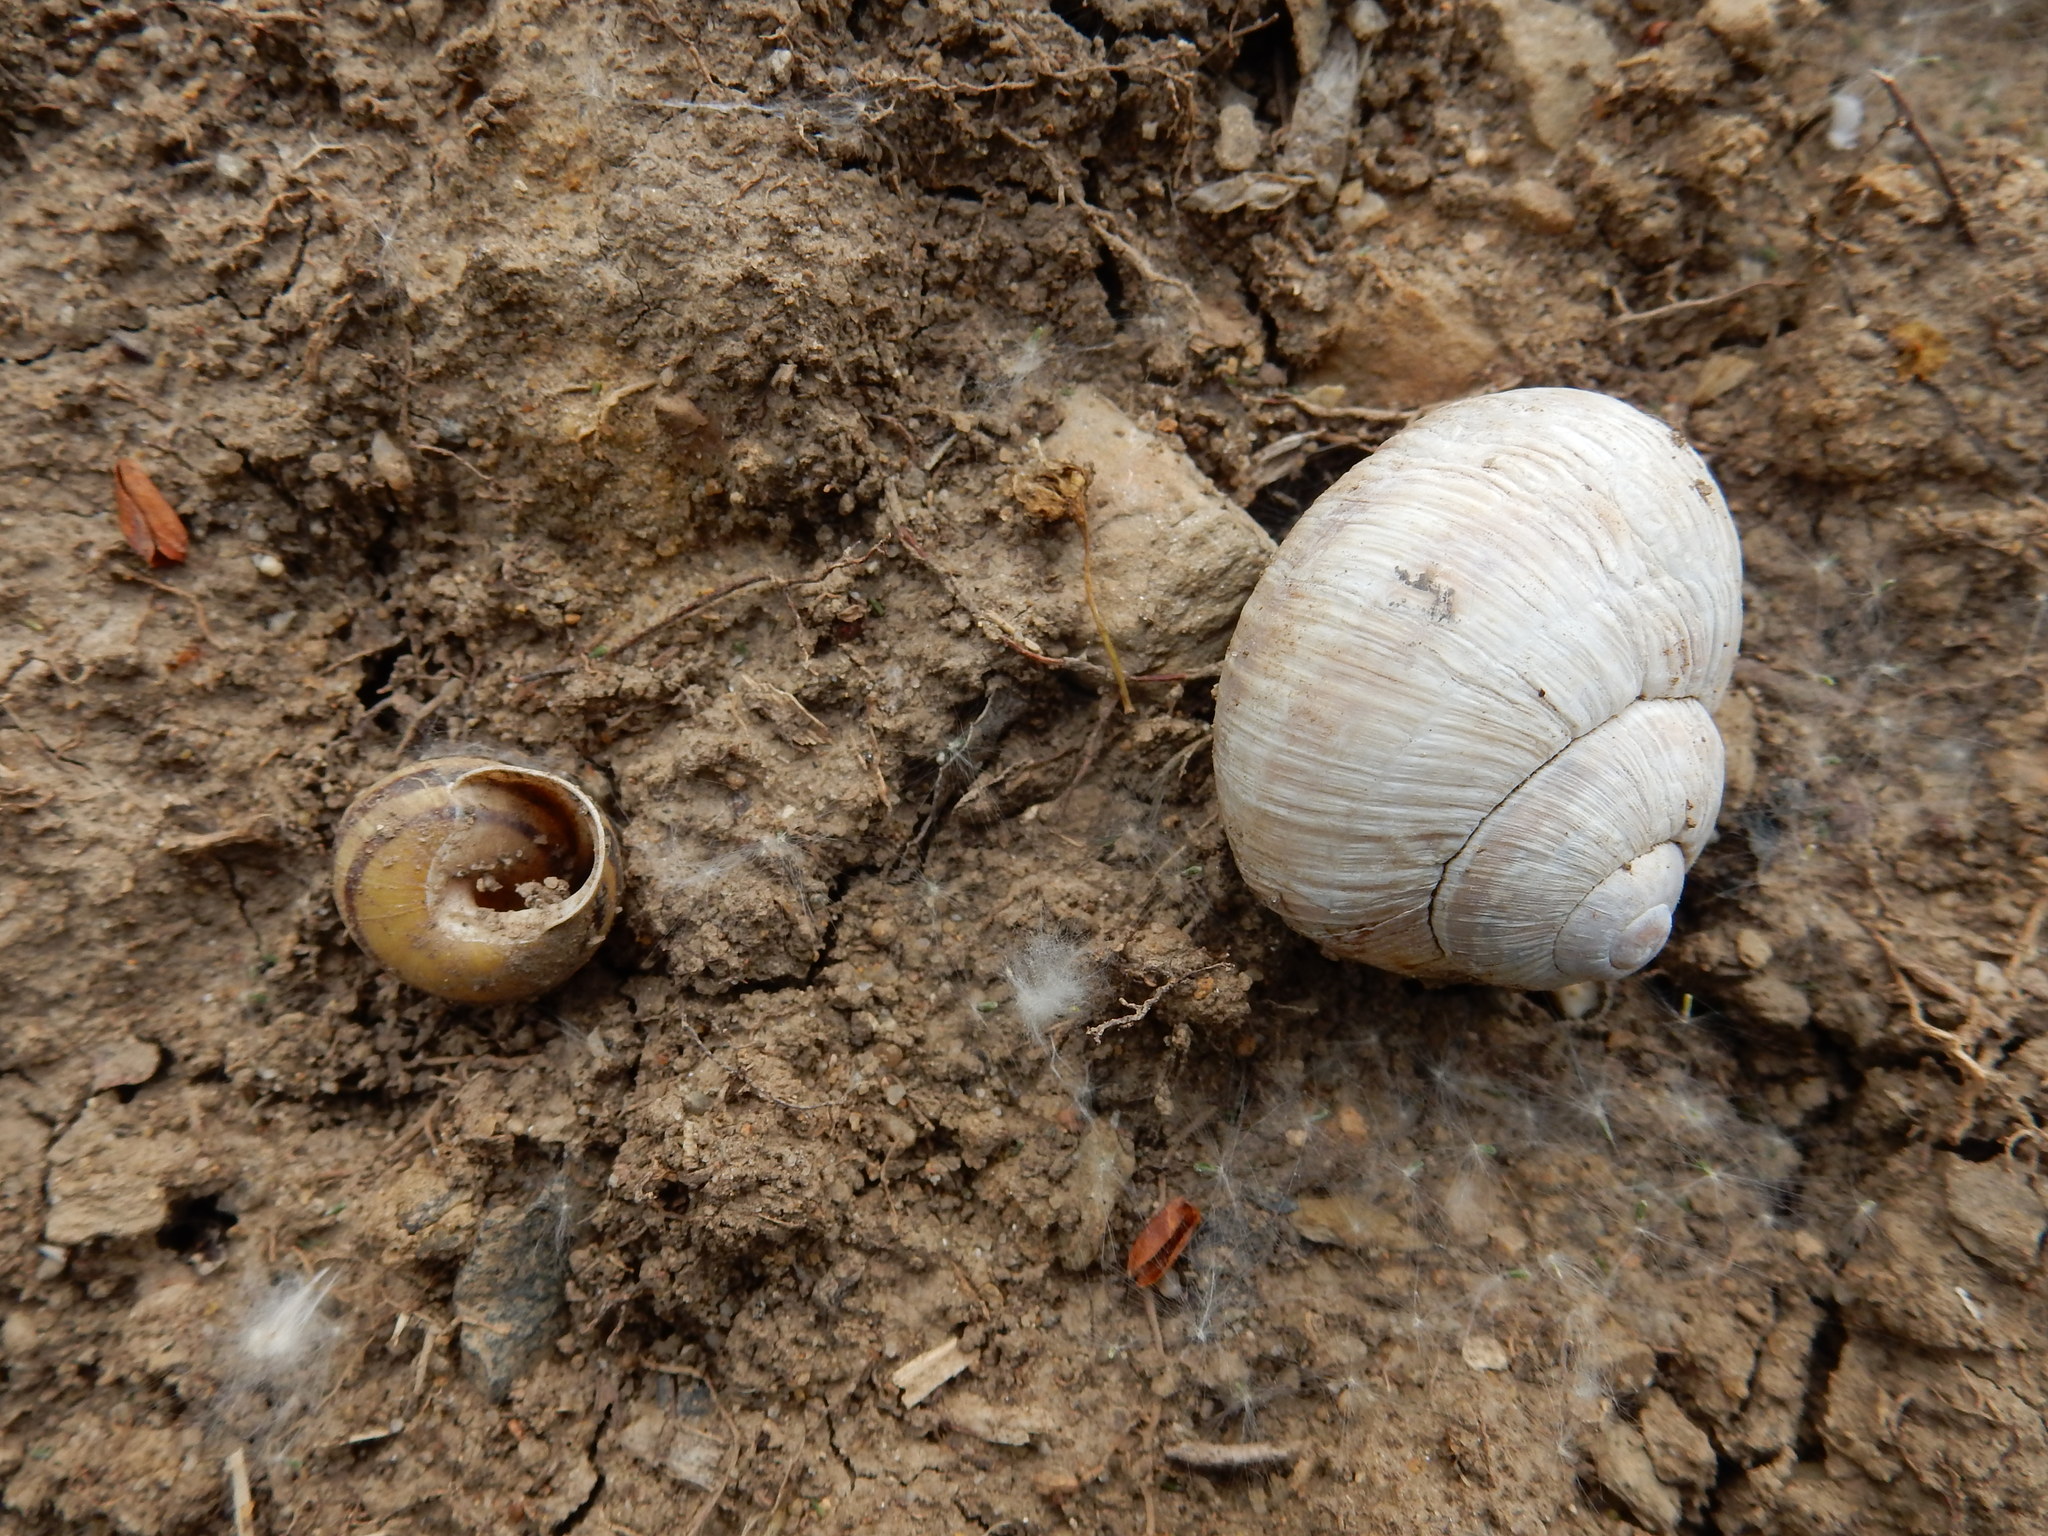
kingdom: Animalia
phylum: Mollusca
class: Gastropoda
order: Stylommatophora
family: Helicidae
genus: Helix
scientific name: Helix pomatia
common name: Roman snail
